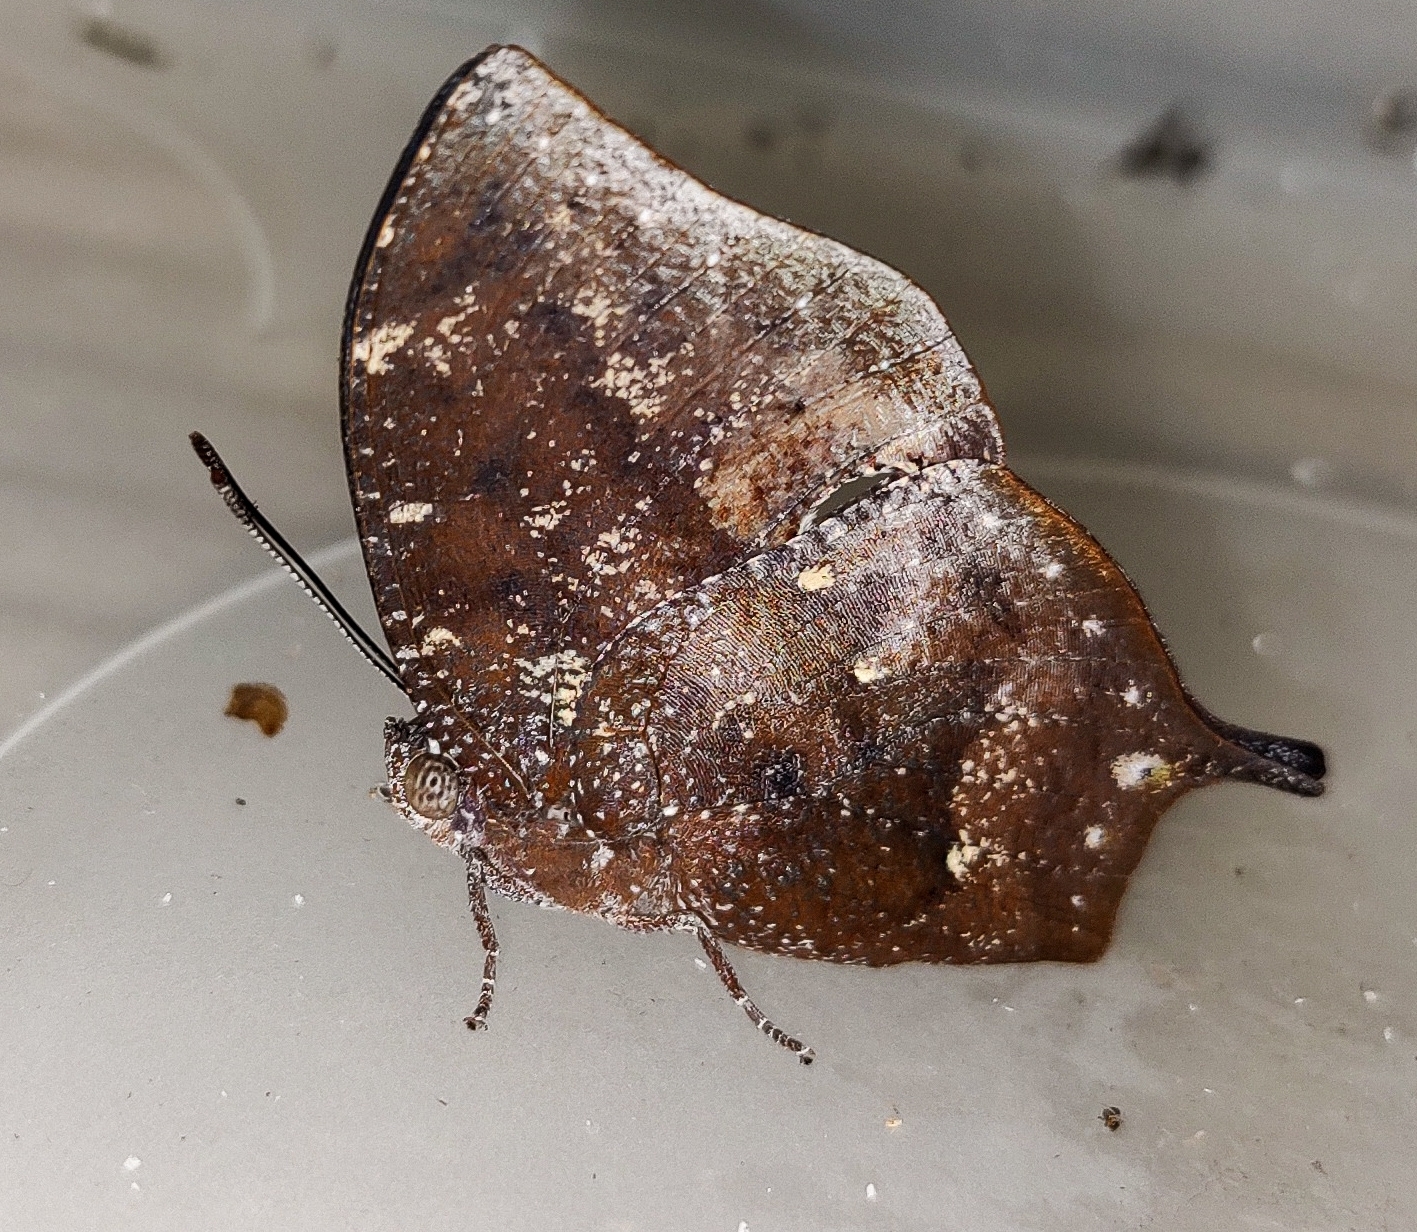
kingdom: Animalia
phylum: Arthropoda
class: Insecta
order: Lepidoptera
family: Nymphalidae
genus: Memphis
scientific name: Memphis moruus
